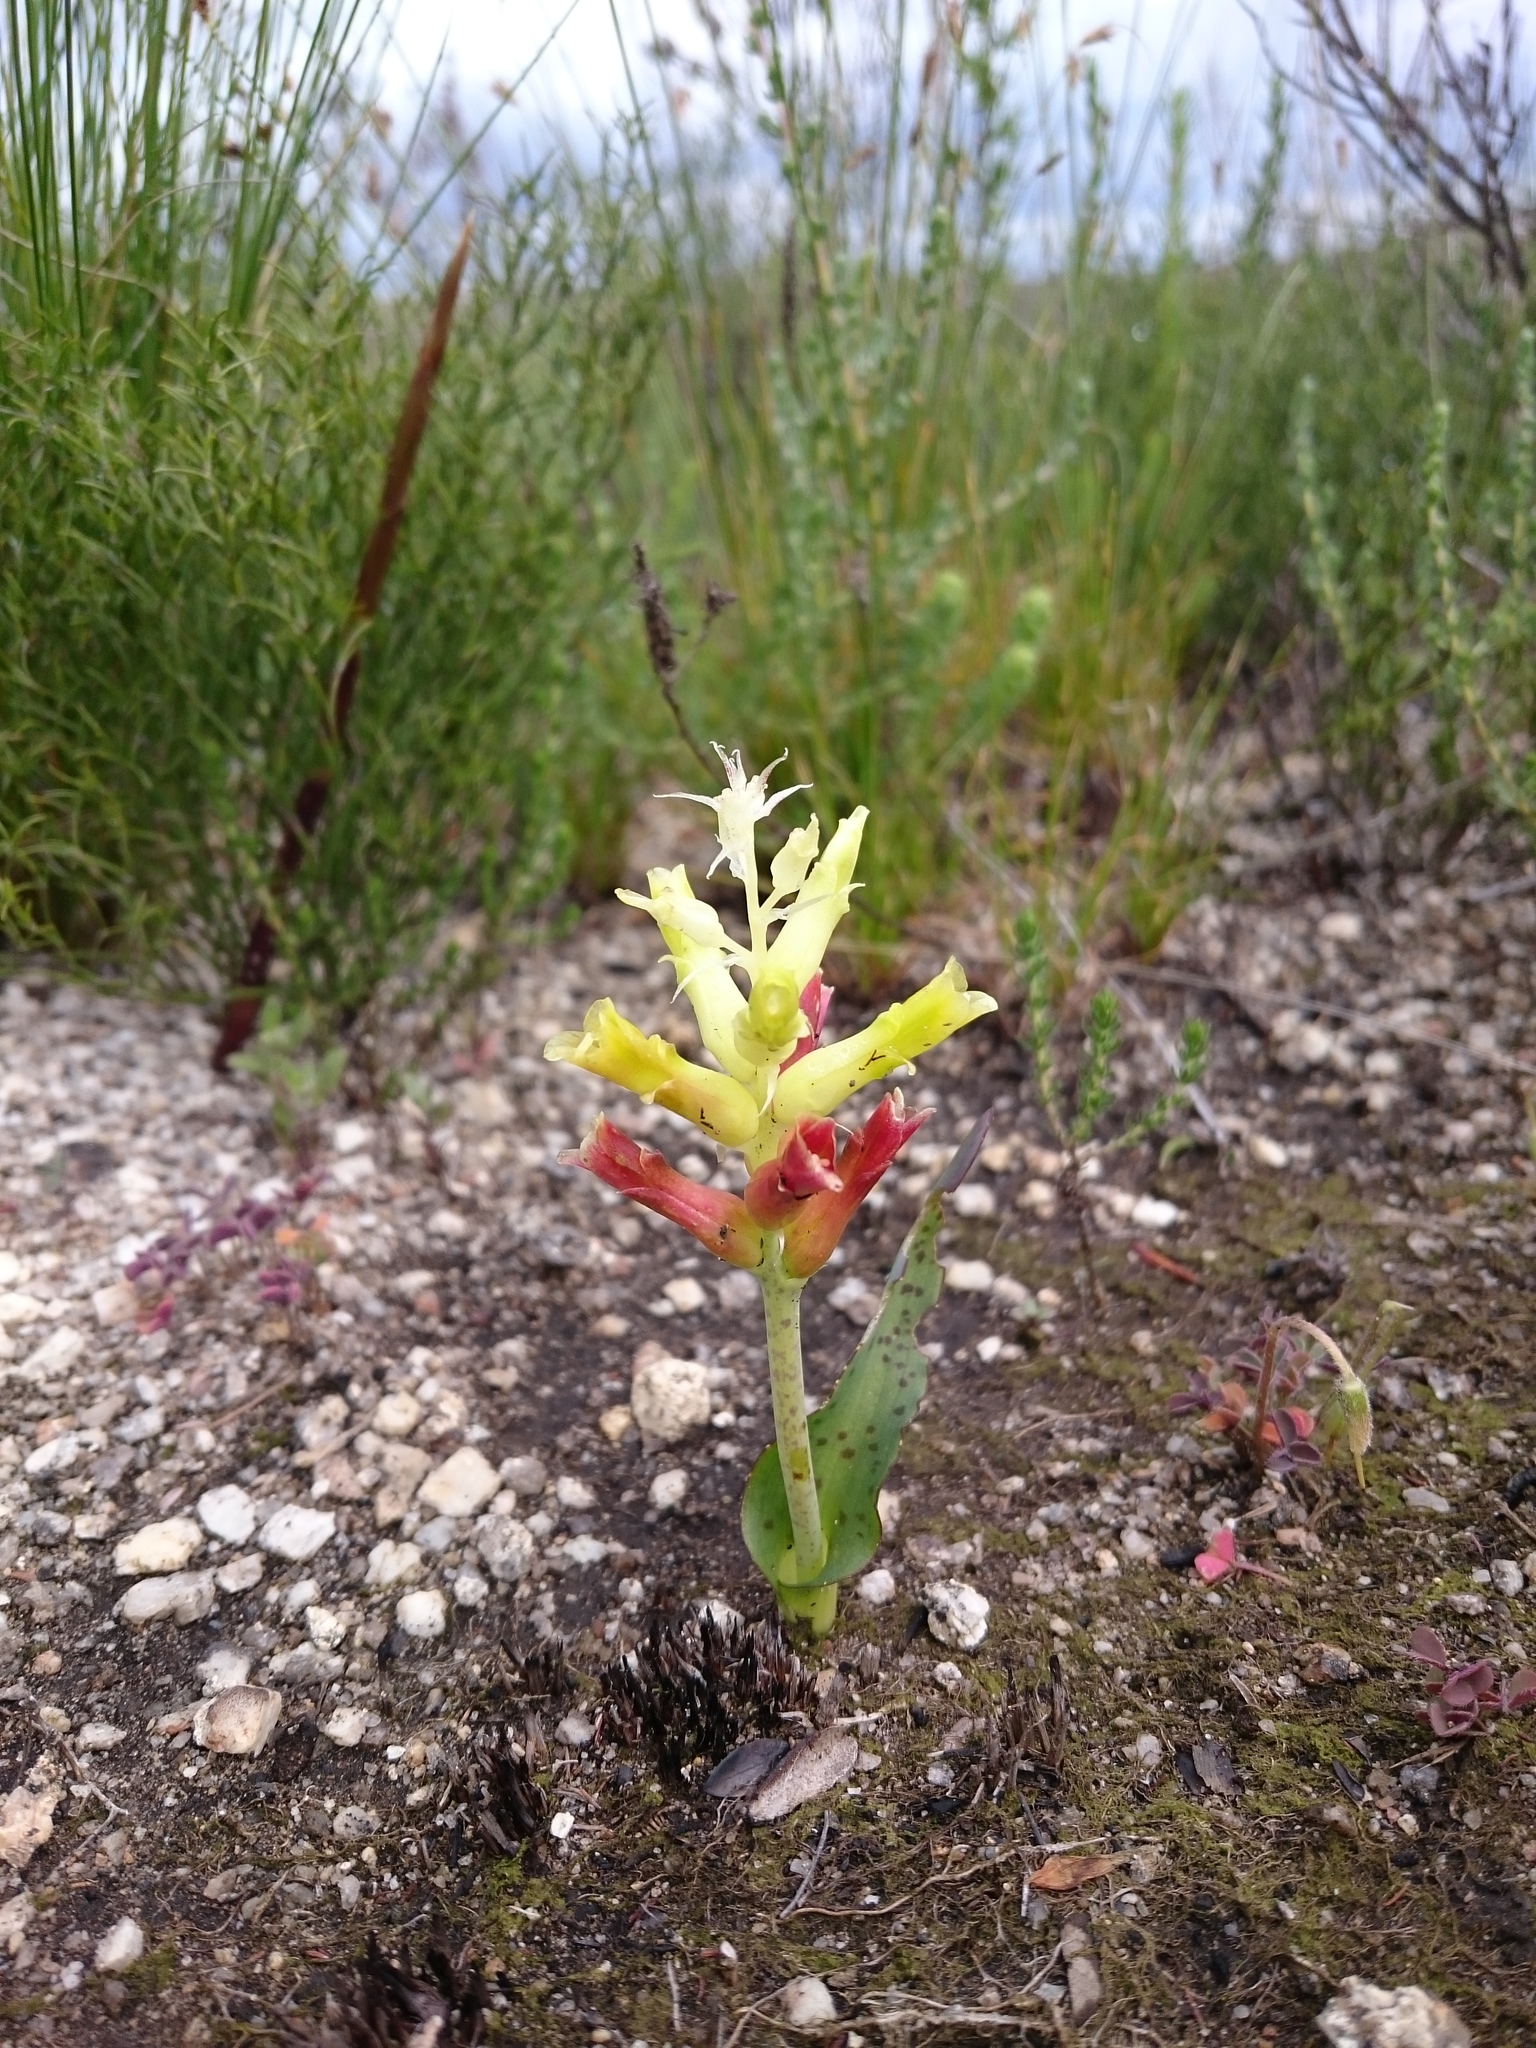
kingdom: Plantae
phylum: Tracheophyta
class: Liliopsida
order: Asparagales
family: Asparagaceae
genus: Lachenalia
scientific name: Lachenalia orchioides
